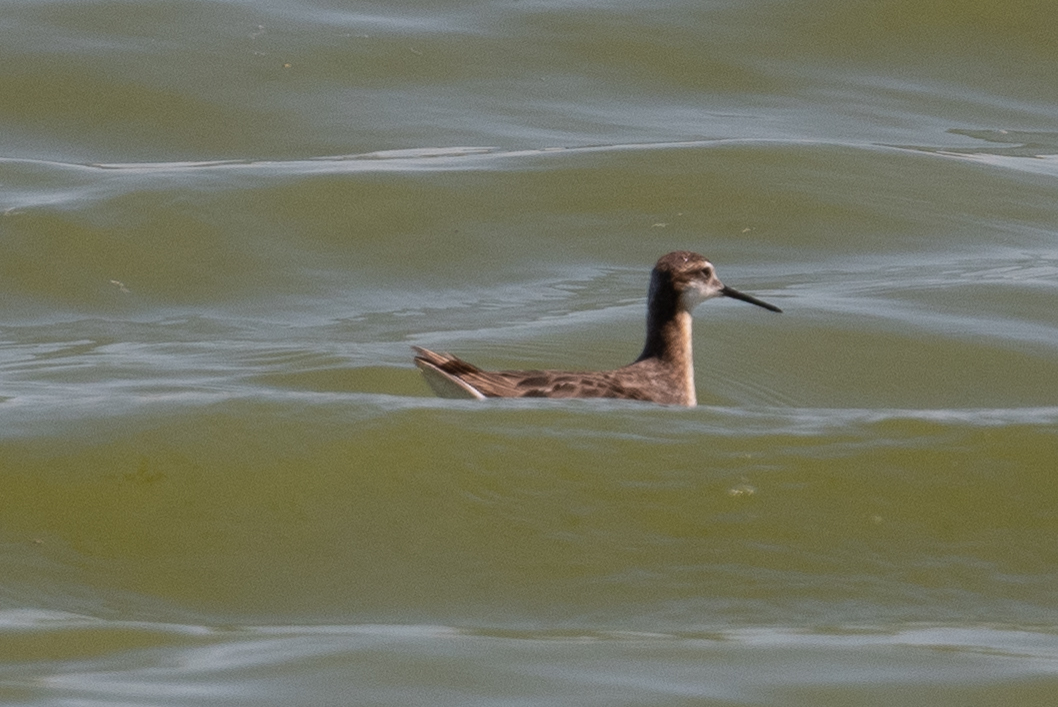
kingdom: Animalia
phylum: Chordata
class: Aves
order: Charadriiformes
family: Scolopacidae
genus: Phalaropus
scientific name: Phalaropus tricolor
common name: Wilson's phalarope
